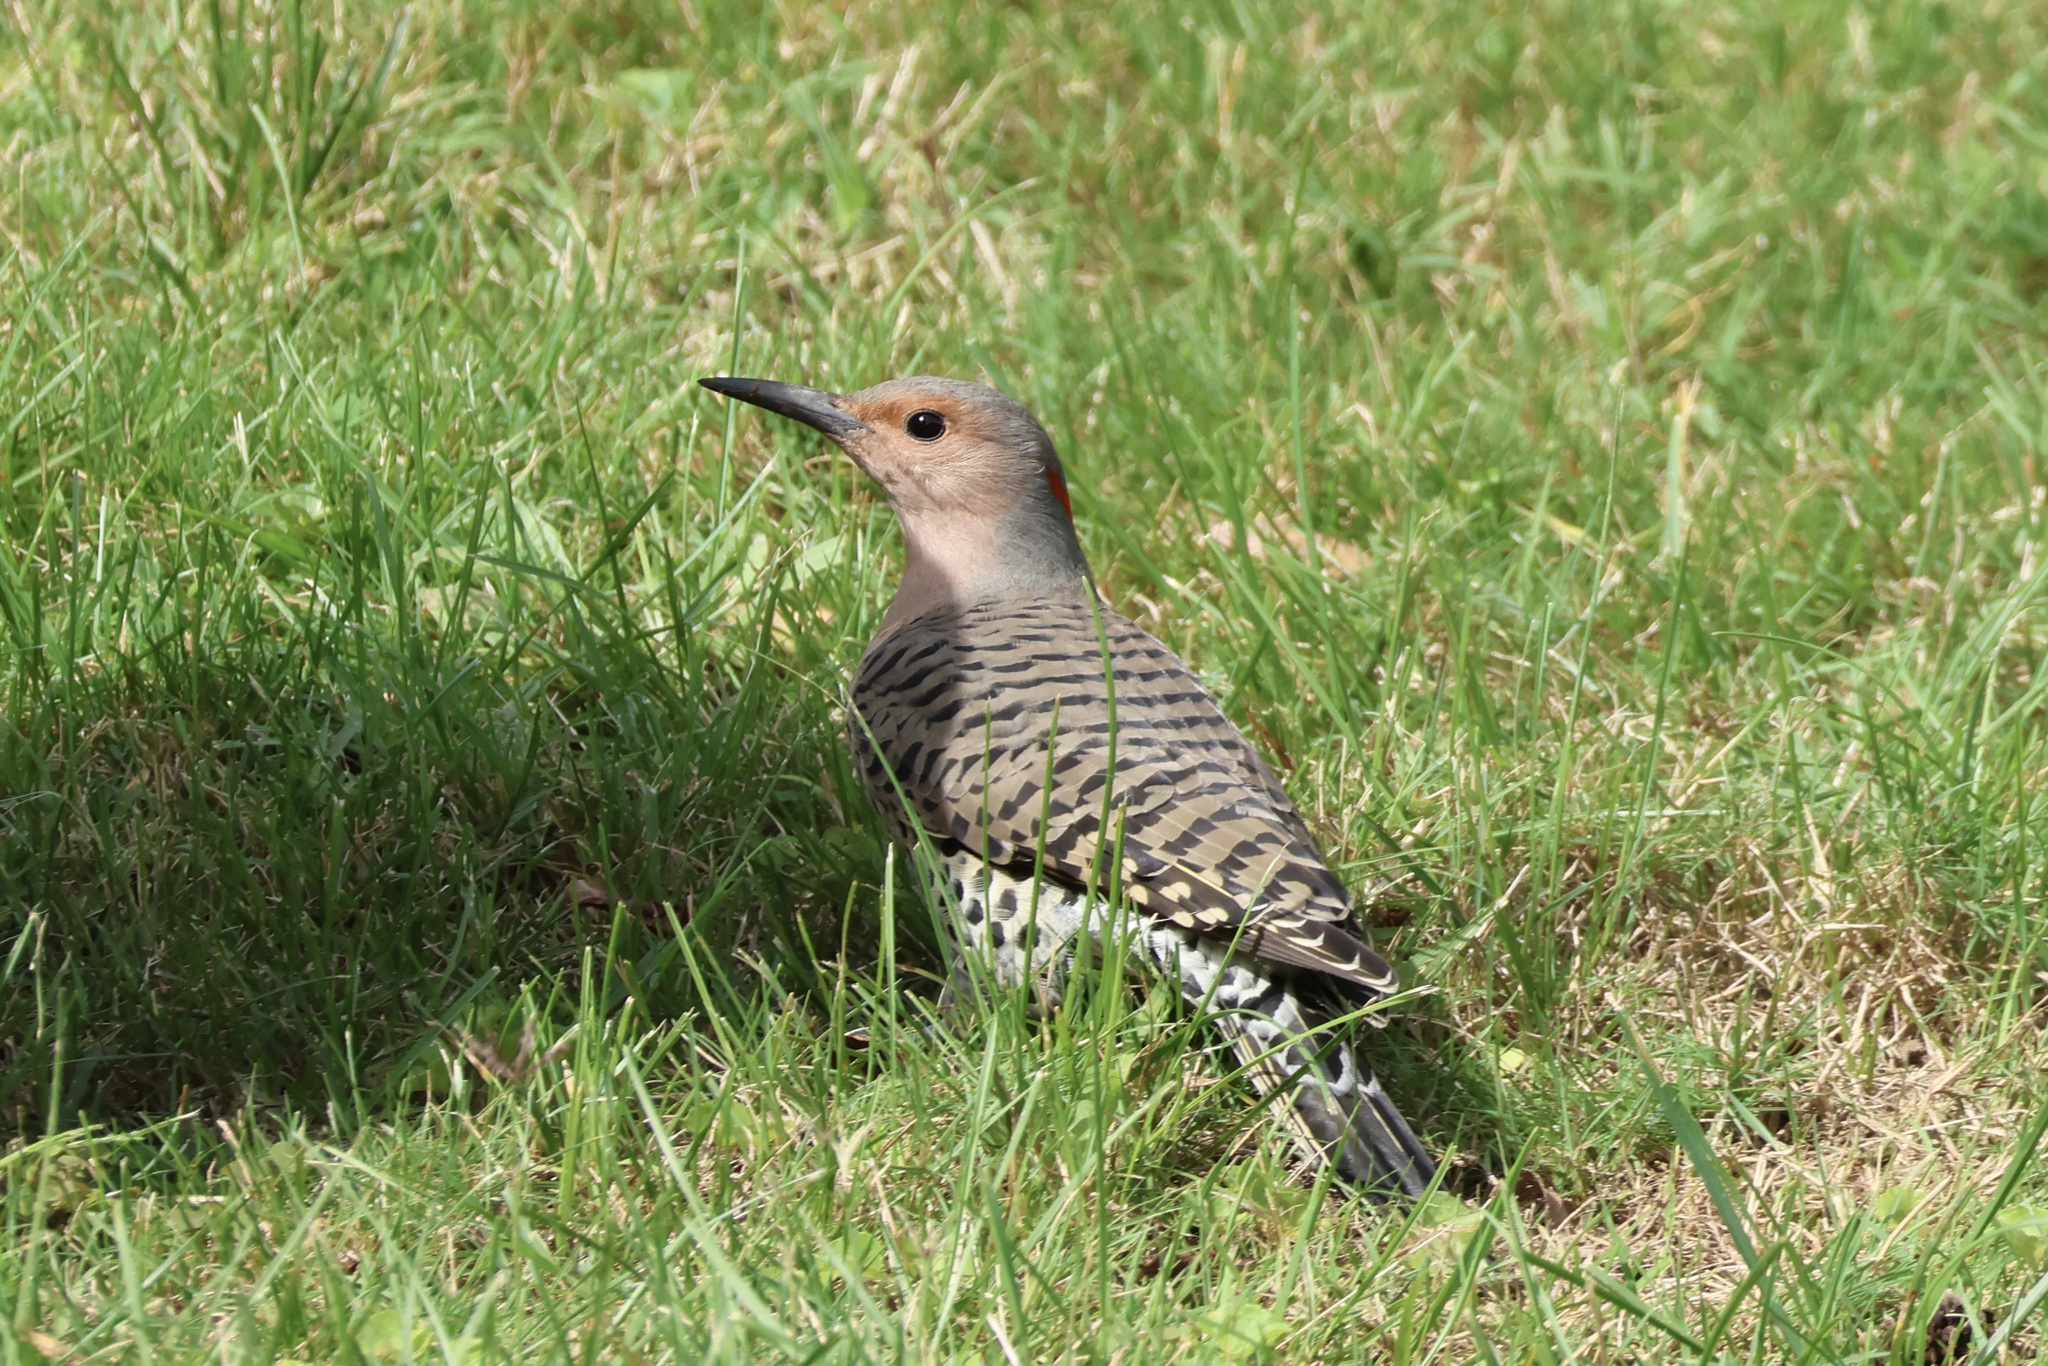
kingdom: Animalia
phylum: Chordata
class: Aves
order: Piciformes
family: Picidae
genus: Colaptes
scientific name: Colaptes auratus
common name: Northern flicker
